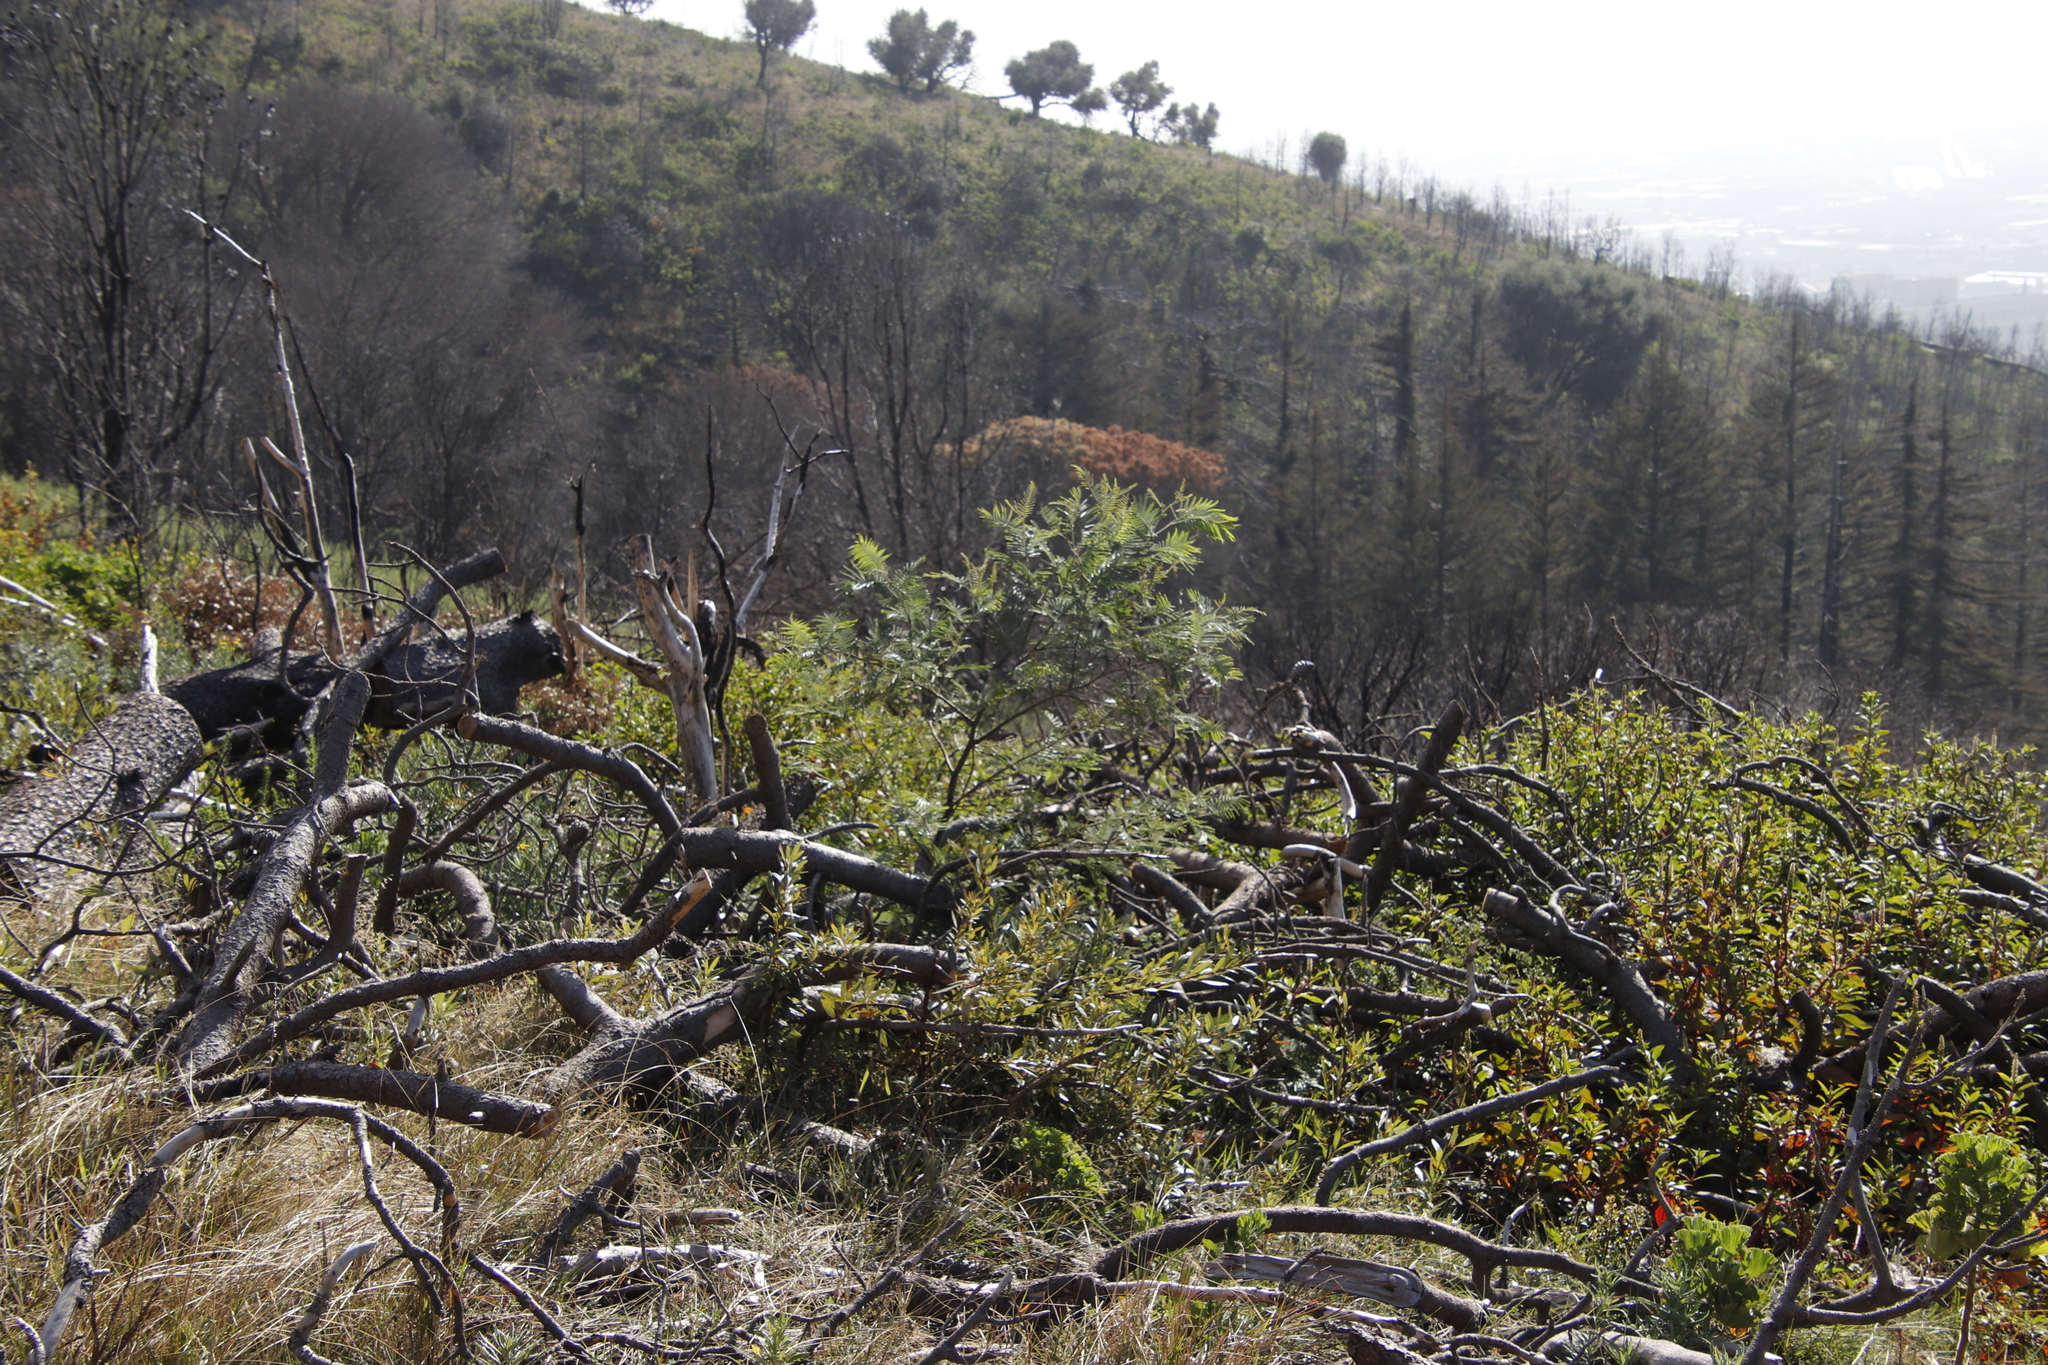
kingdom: Plantae
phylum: Tracheophyta
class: Magnoliopsida
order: Fabales
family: Fabaceae
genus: Acacia
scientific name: Acacia mearnsii
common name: Black wattle
